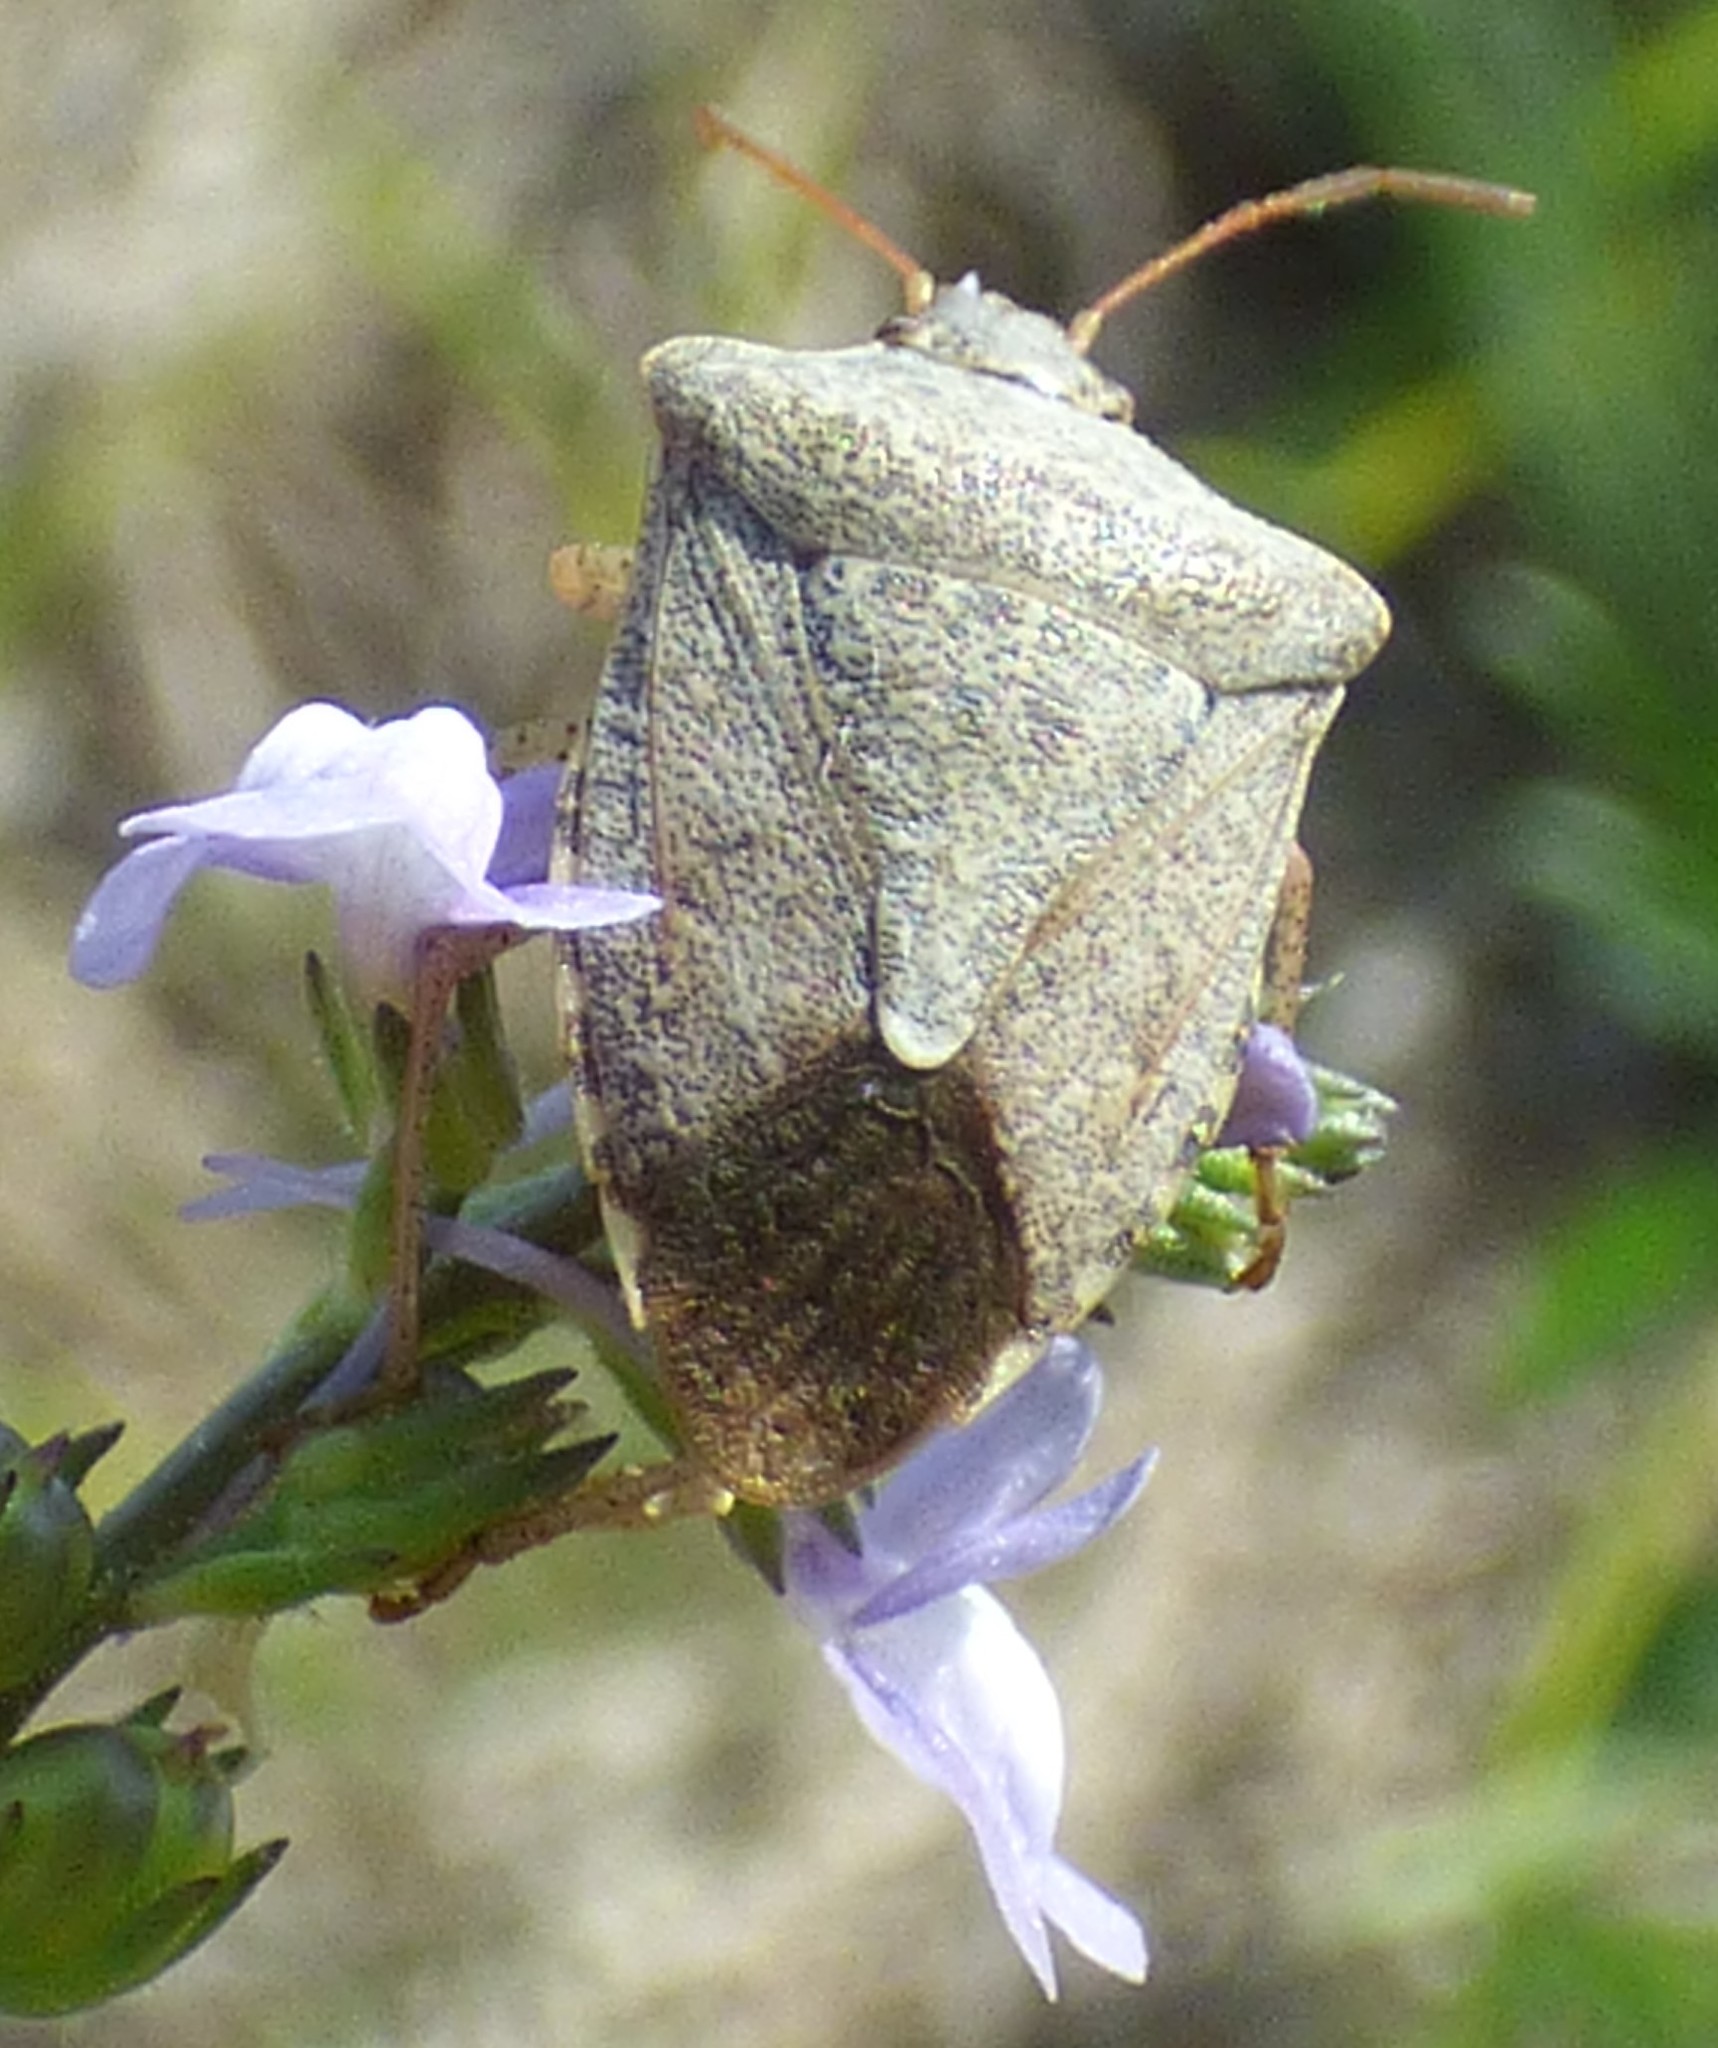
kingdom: Animalia
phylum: Arthropoda
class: Insecta
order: Hemiptera
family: Pentatomidae
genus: Euschistus
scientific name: Euschistus tristigmus
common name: Dusky stink bug
